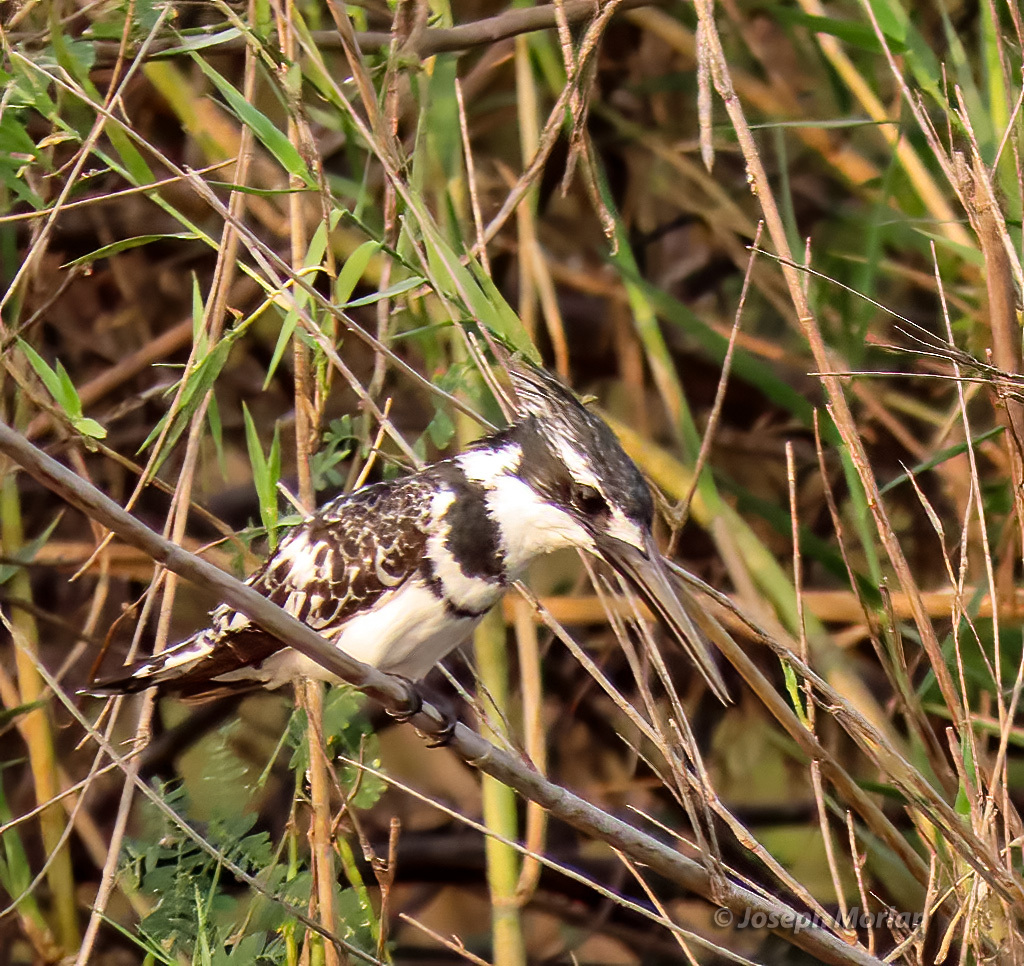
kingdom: Animalia
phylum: Chordata
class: Aves
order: Coraciiformes
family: Alcedinidae
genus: Ceryle
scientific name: Ceryle rudis
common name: Pied kingfisher
